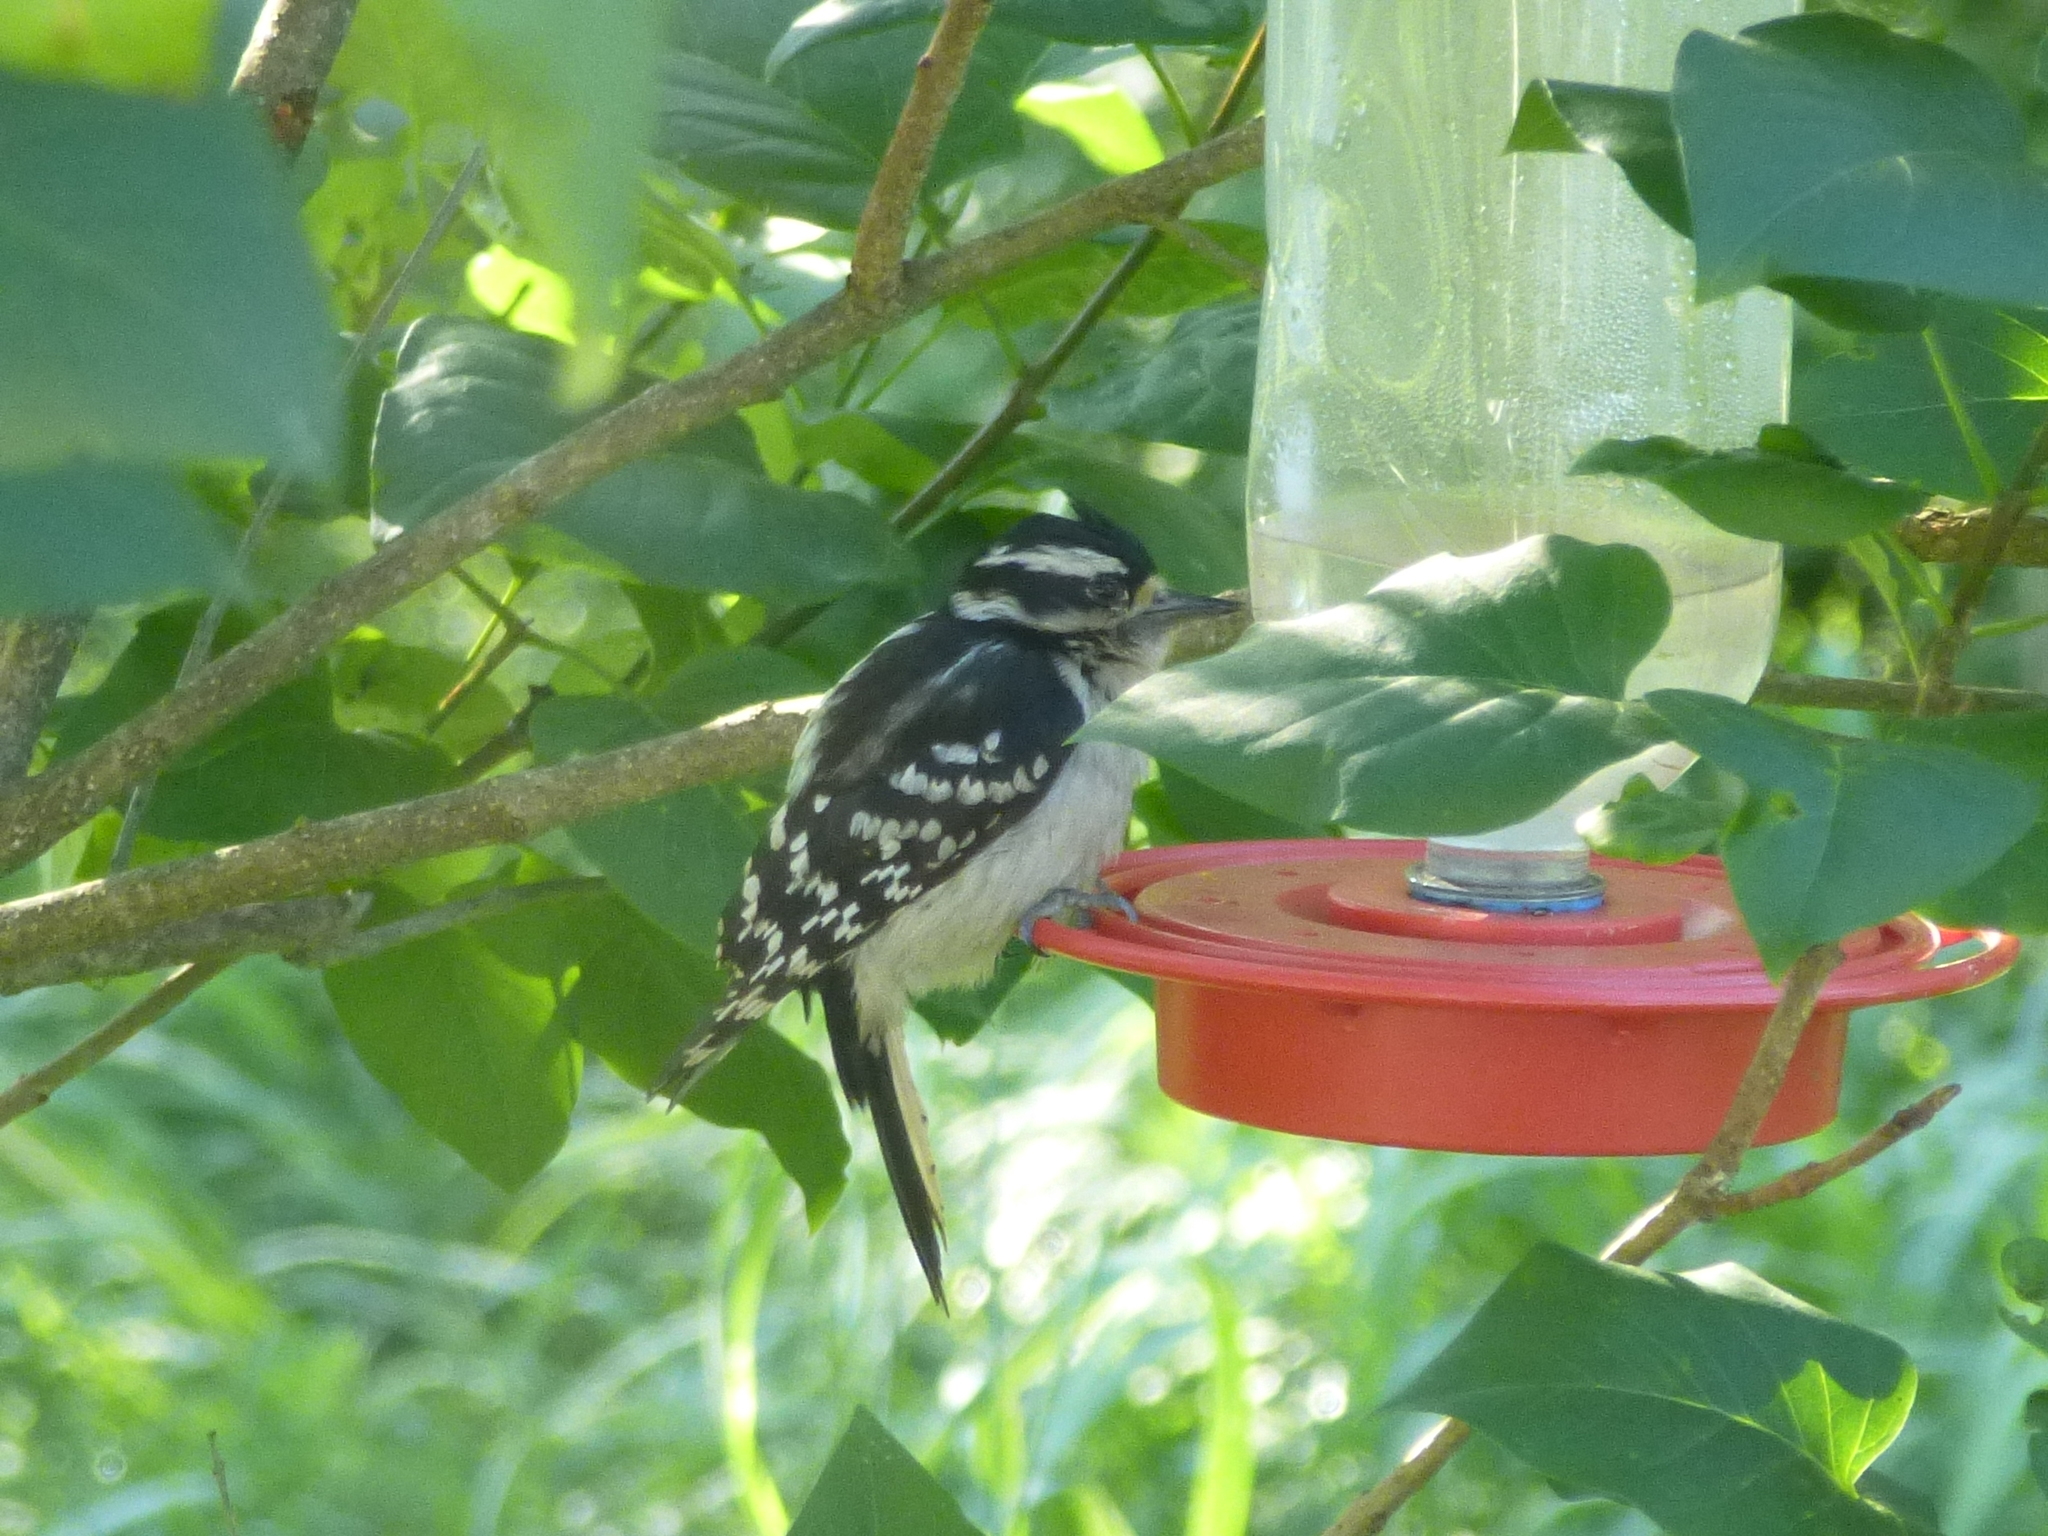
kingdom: Animalia
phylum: Chordata
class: Aves
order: Piciformes
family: Picidae
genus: Dryobates
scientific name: Dryobates pubescens
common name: Downy woodpecker
